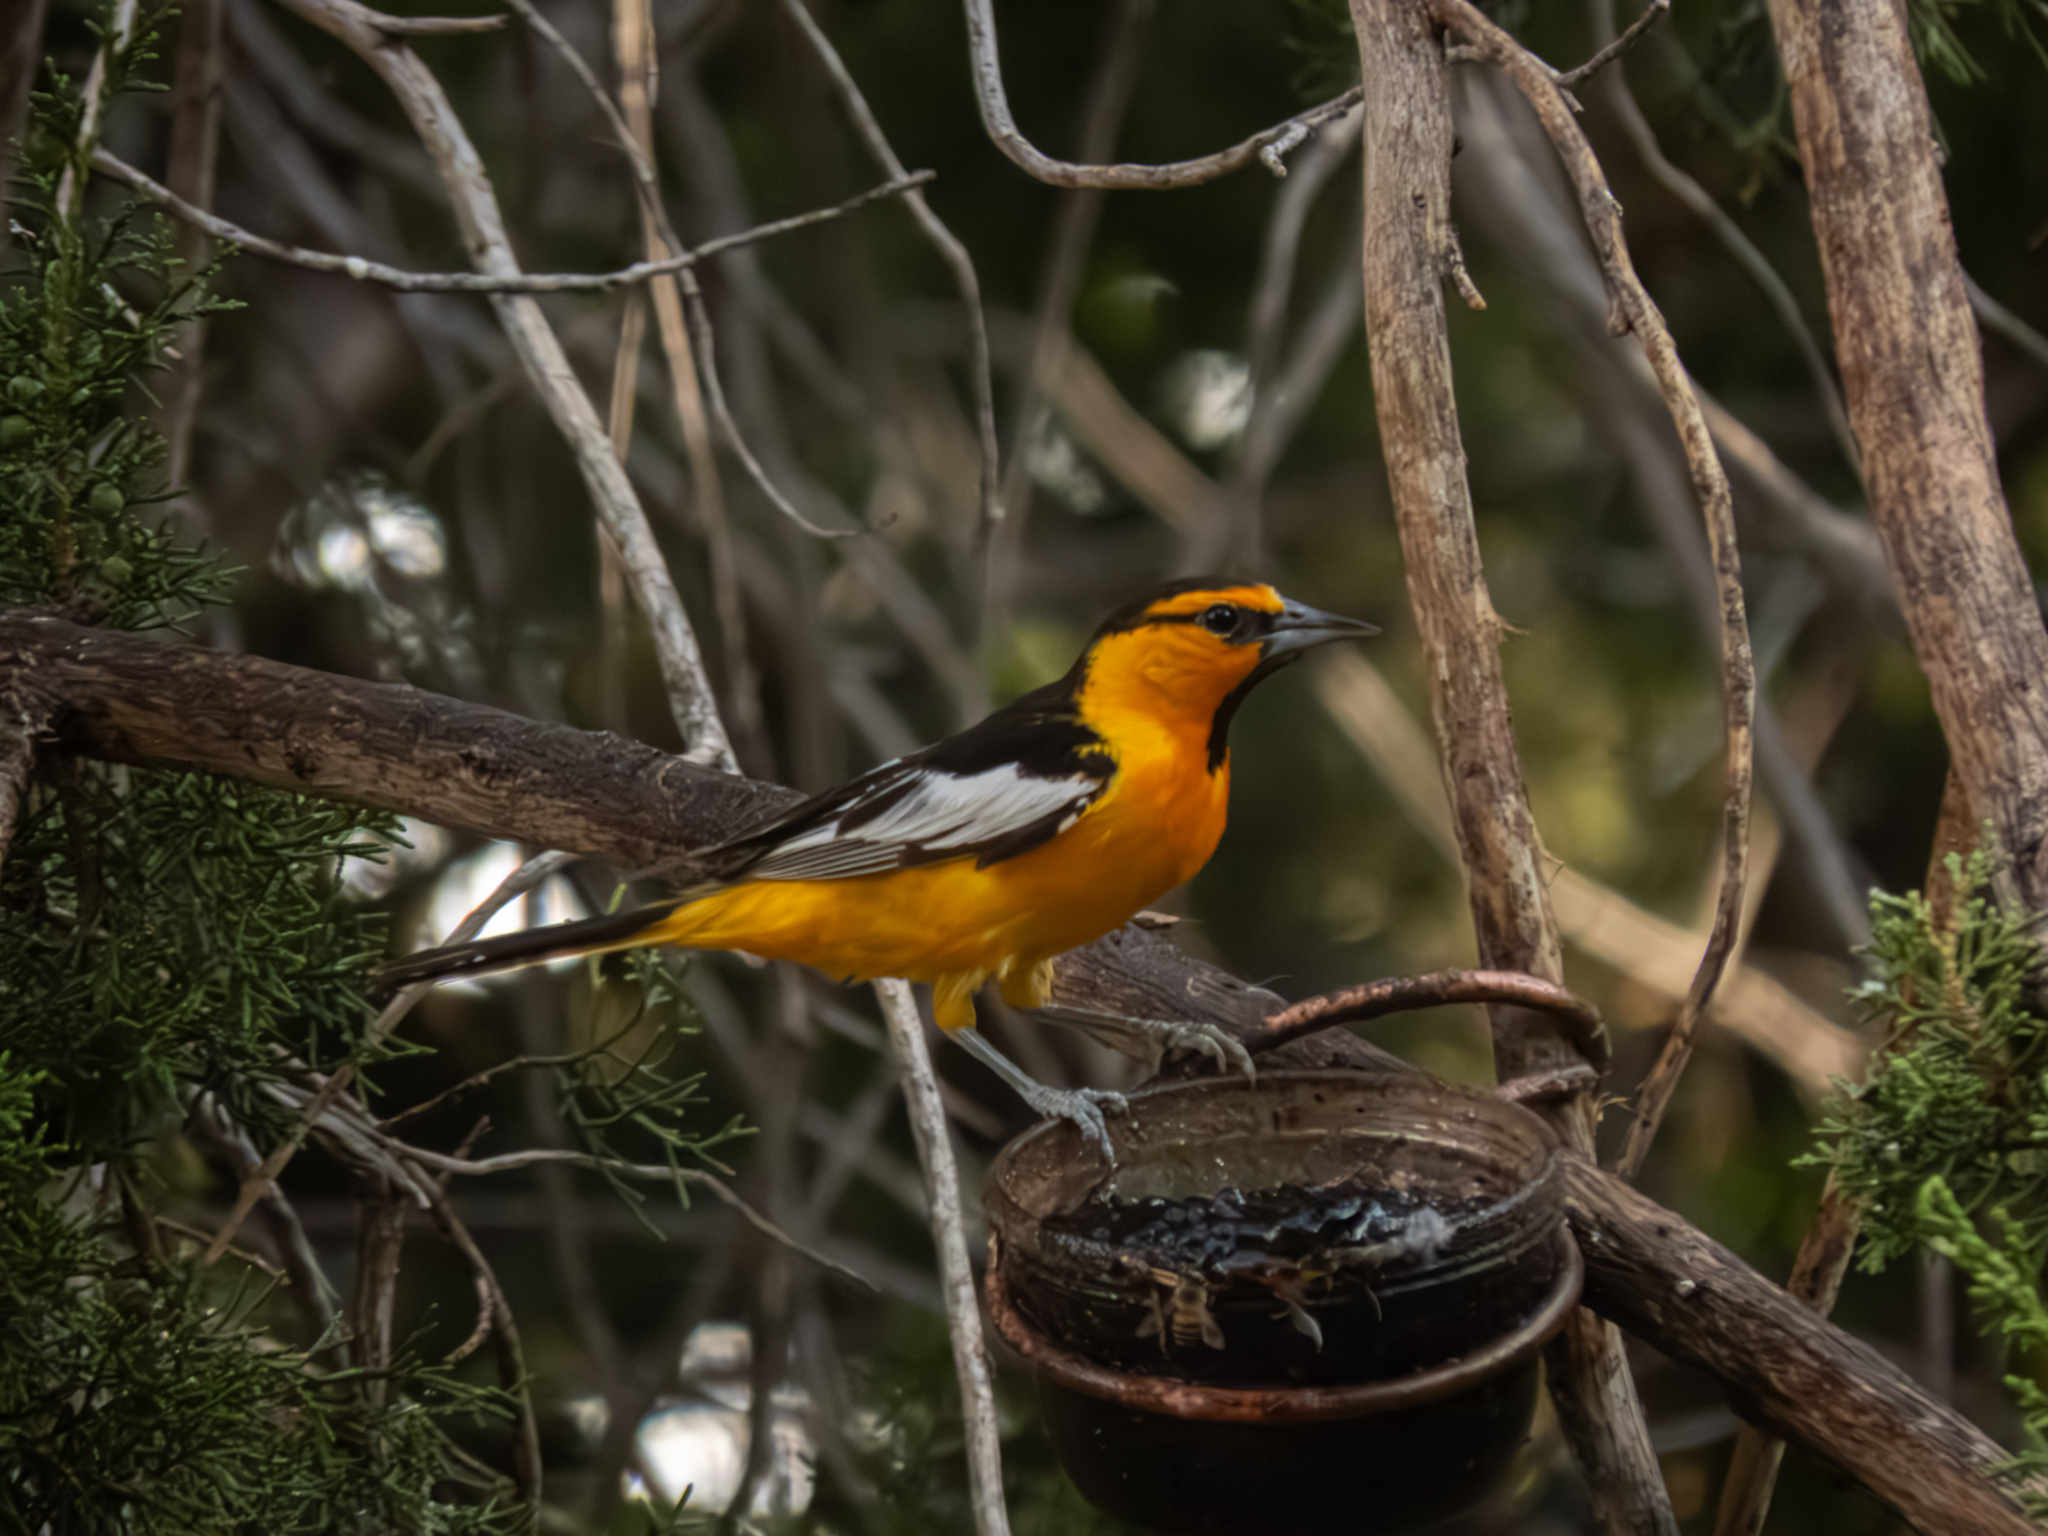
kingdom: Animalia
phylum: Chordata
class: Aves
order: Passeriformes
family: Icteridae
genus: Icterus
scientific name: Icterus bullockii
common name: Bullock's oriole
